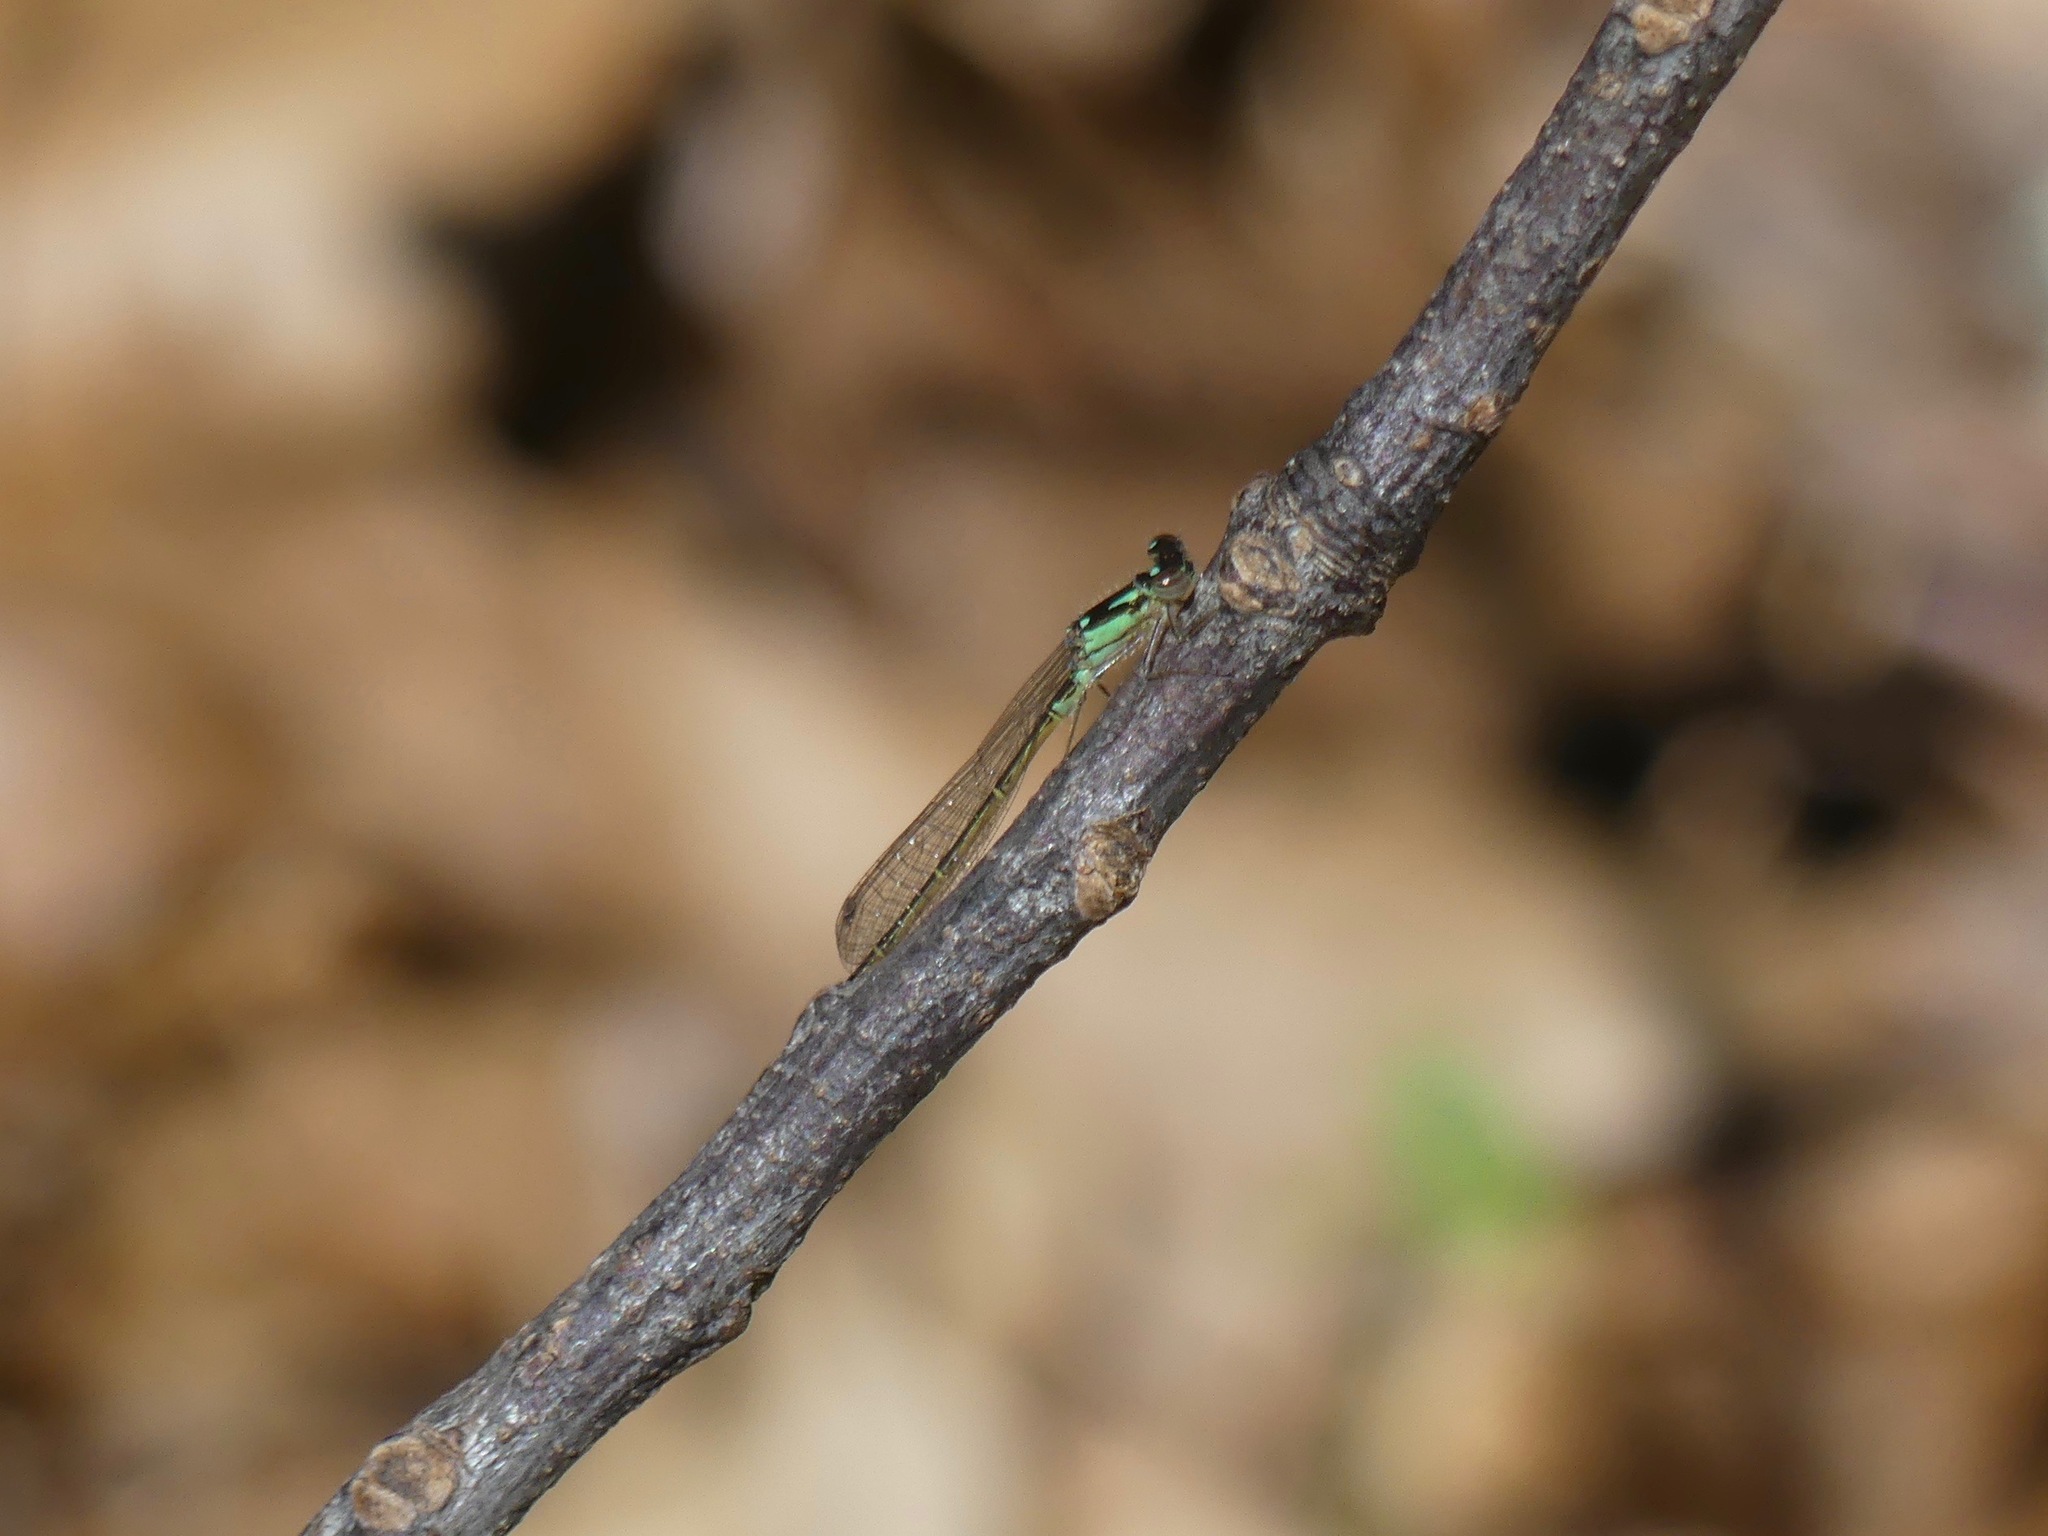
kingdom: Animalia
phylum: Arthropoda
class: Insecta
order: Odonata
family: Coenagrionidae
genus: Ischnura
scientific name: Ischnura posita
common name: Fragile forktail
